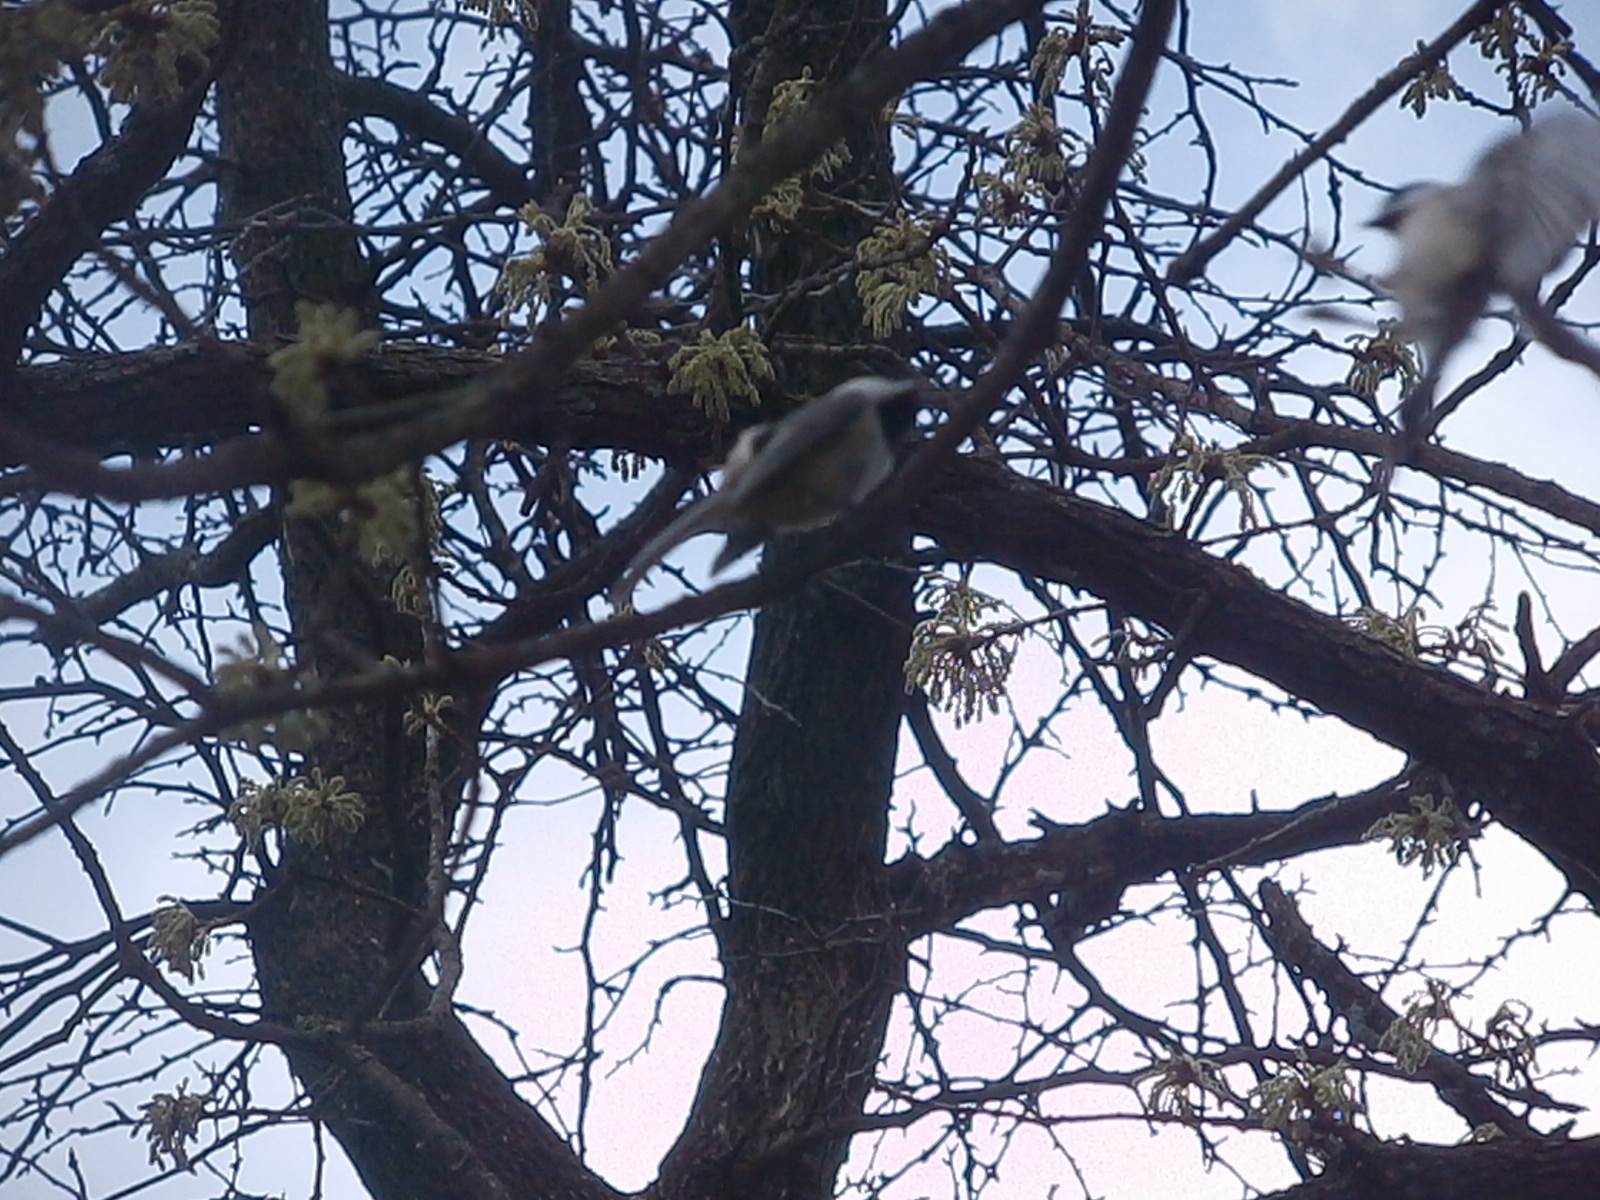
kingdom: Animalia
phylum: Chordata
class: Aves
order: Passeriformes
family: Paridae
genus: Poecile
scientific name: Poecile carolinensis
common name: Carolina chickadee
